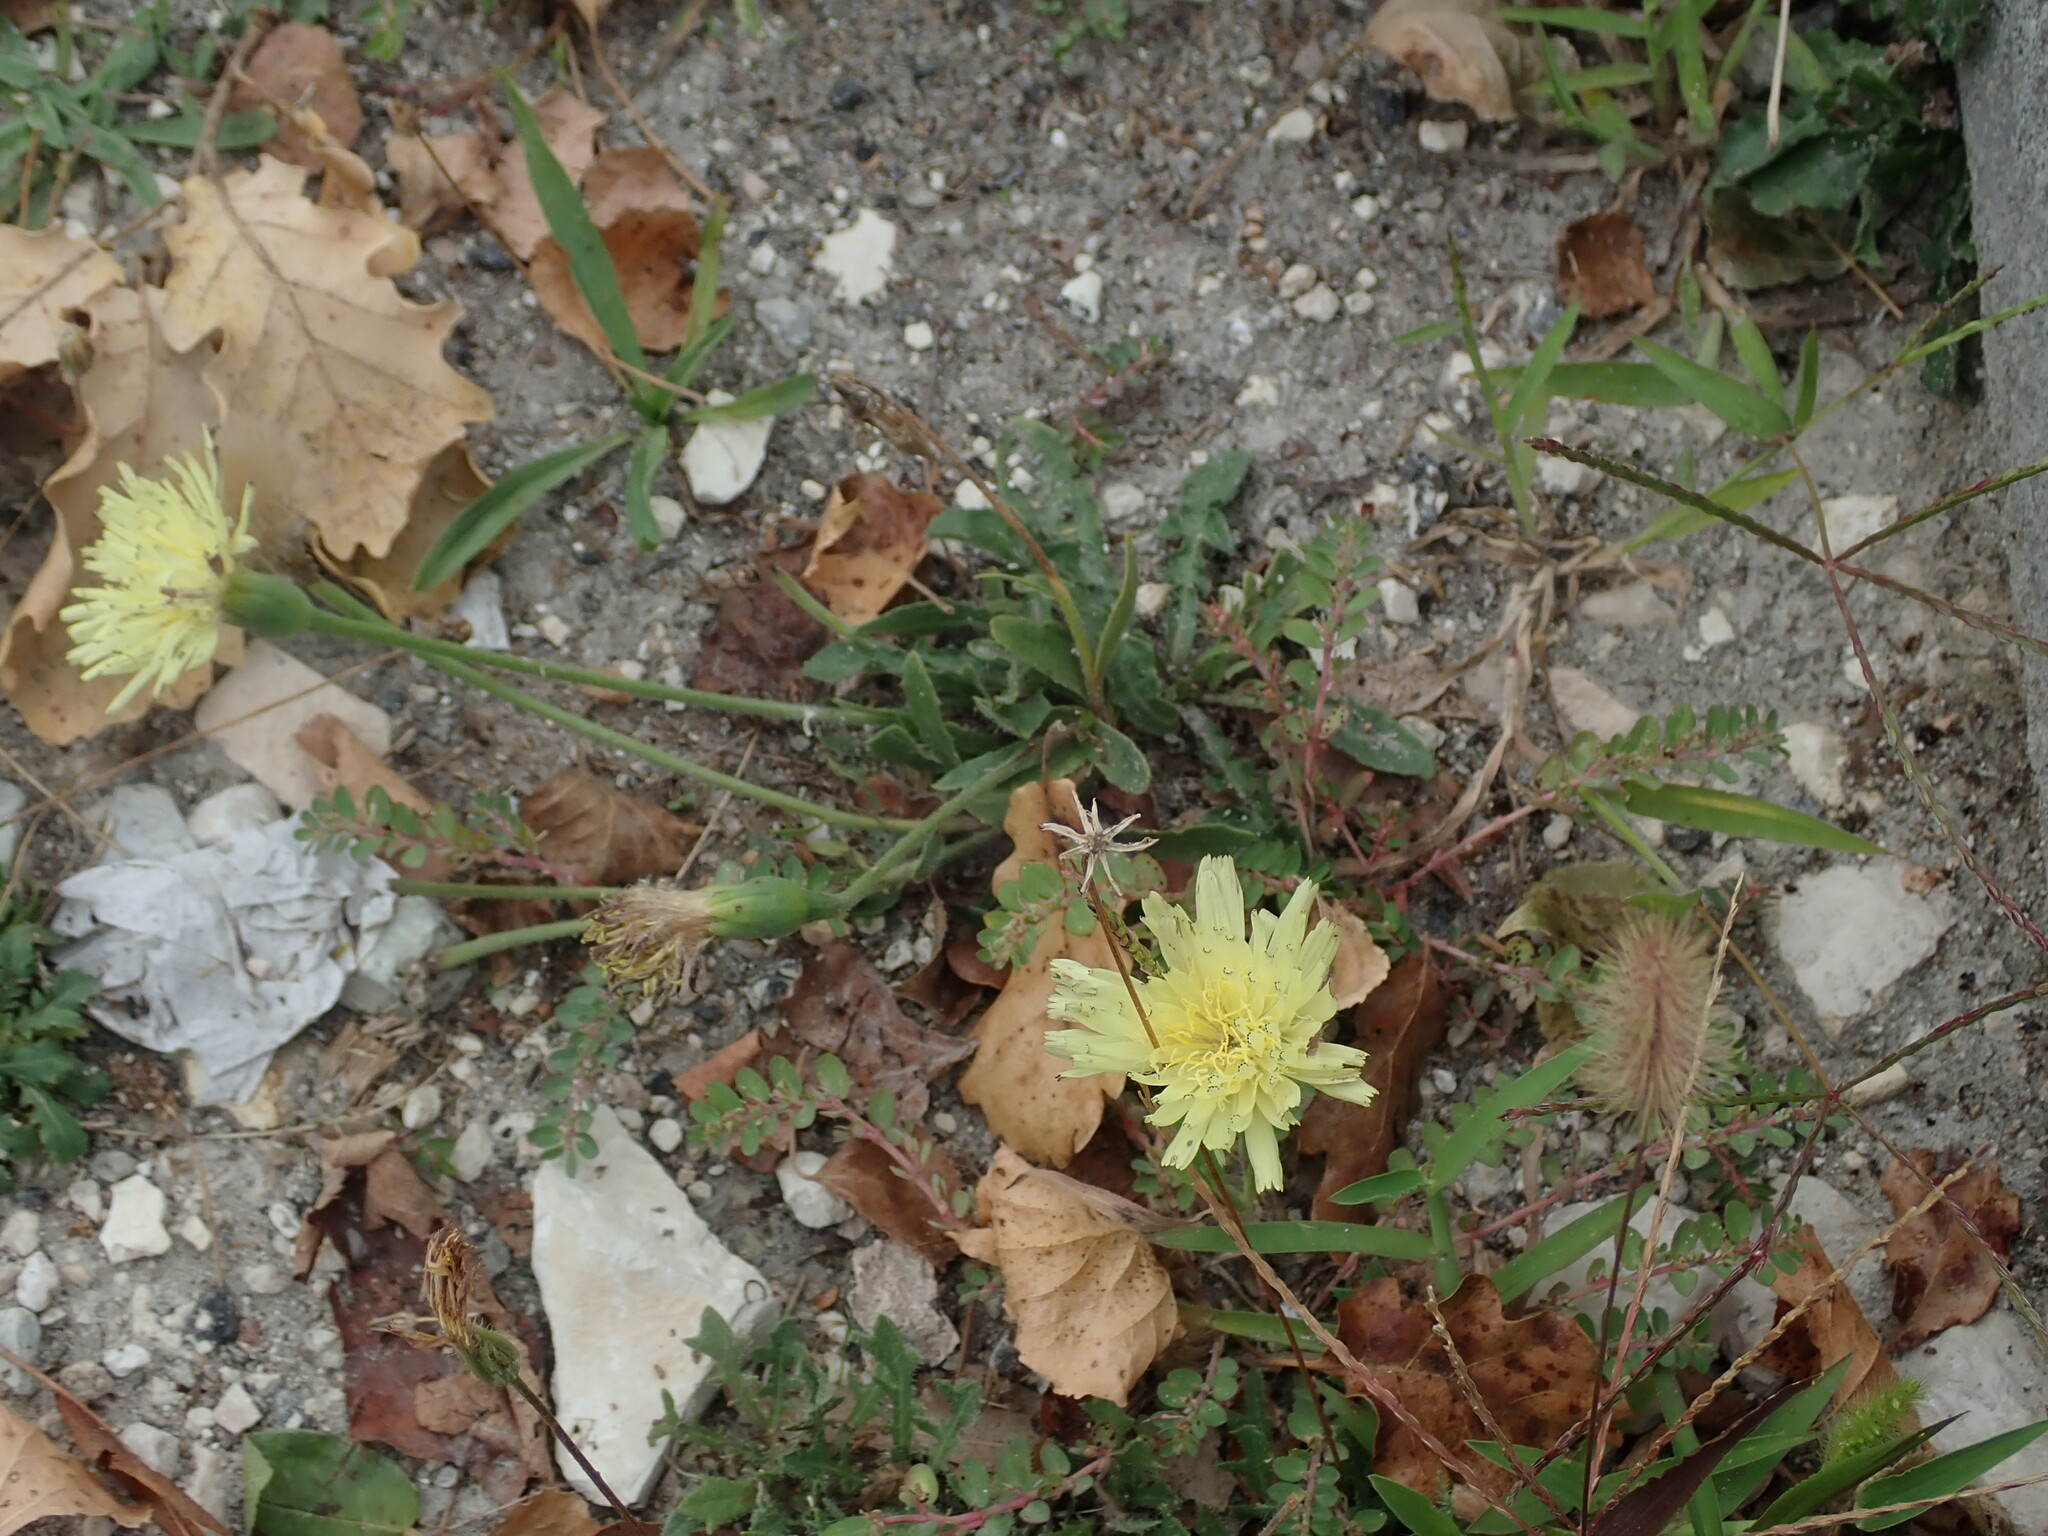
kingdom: Plantae
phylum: Tracheophyta
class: Magnoliopsida
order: Asterales
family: Asteraceae
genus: Urospermum
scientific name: Urospermum dalechampii
